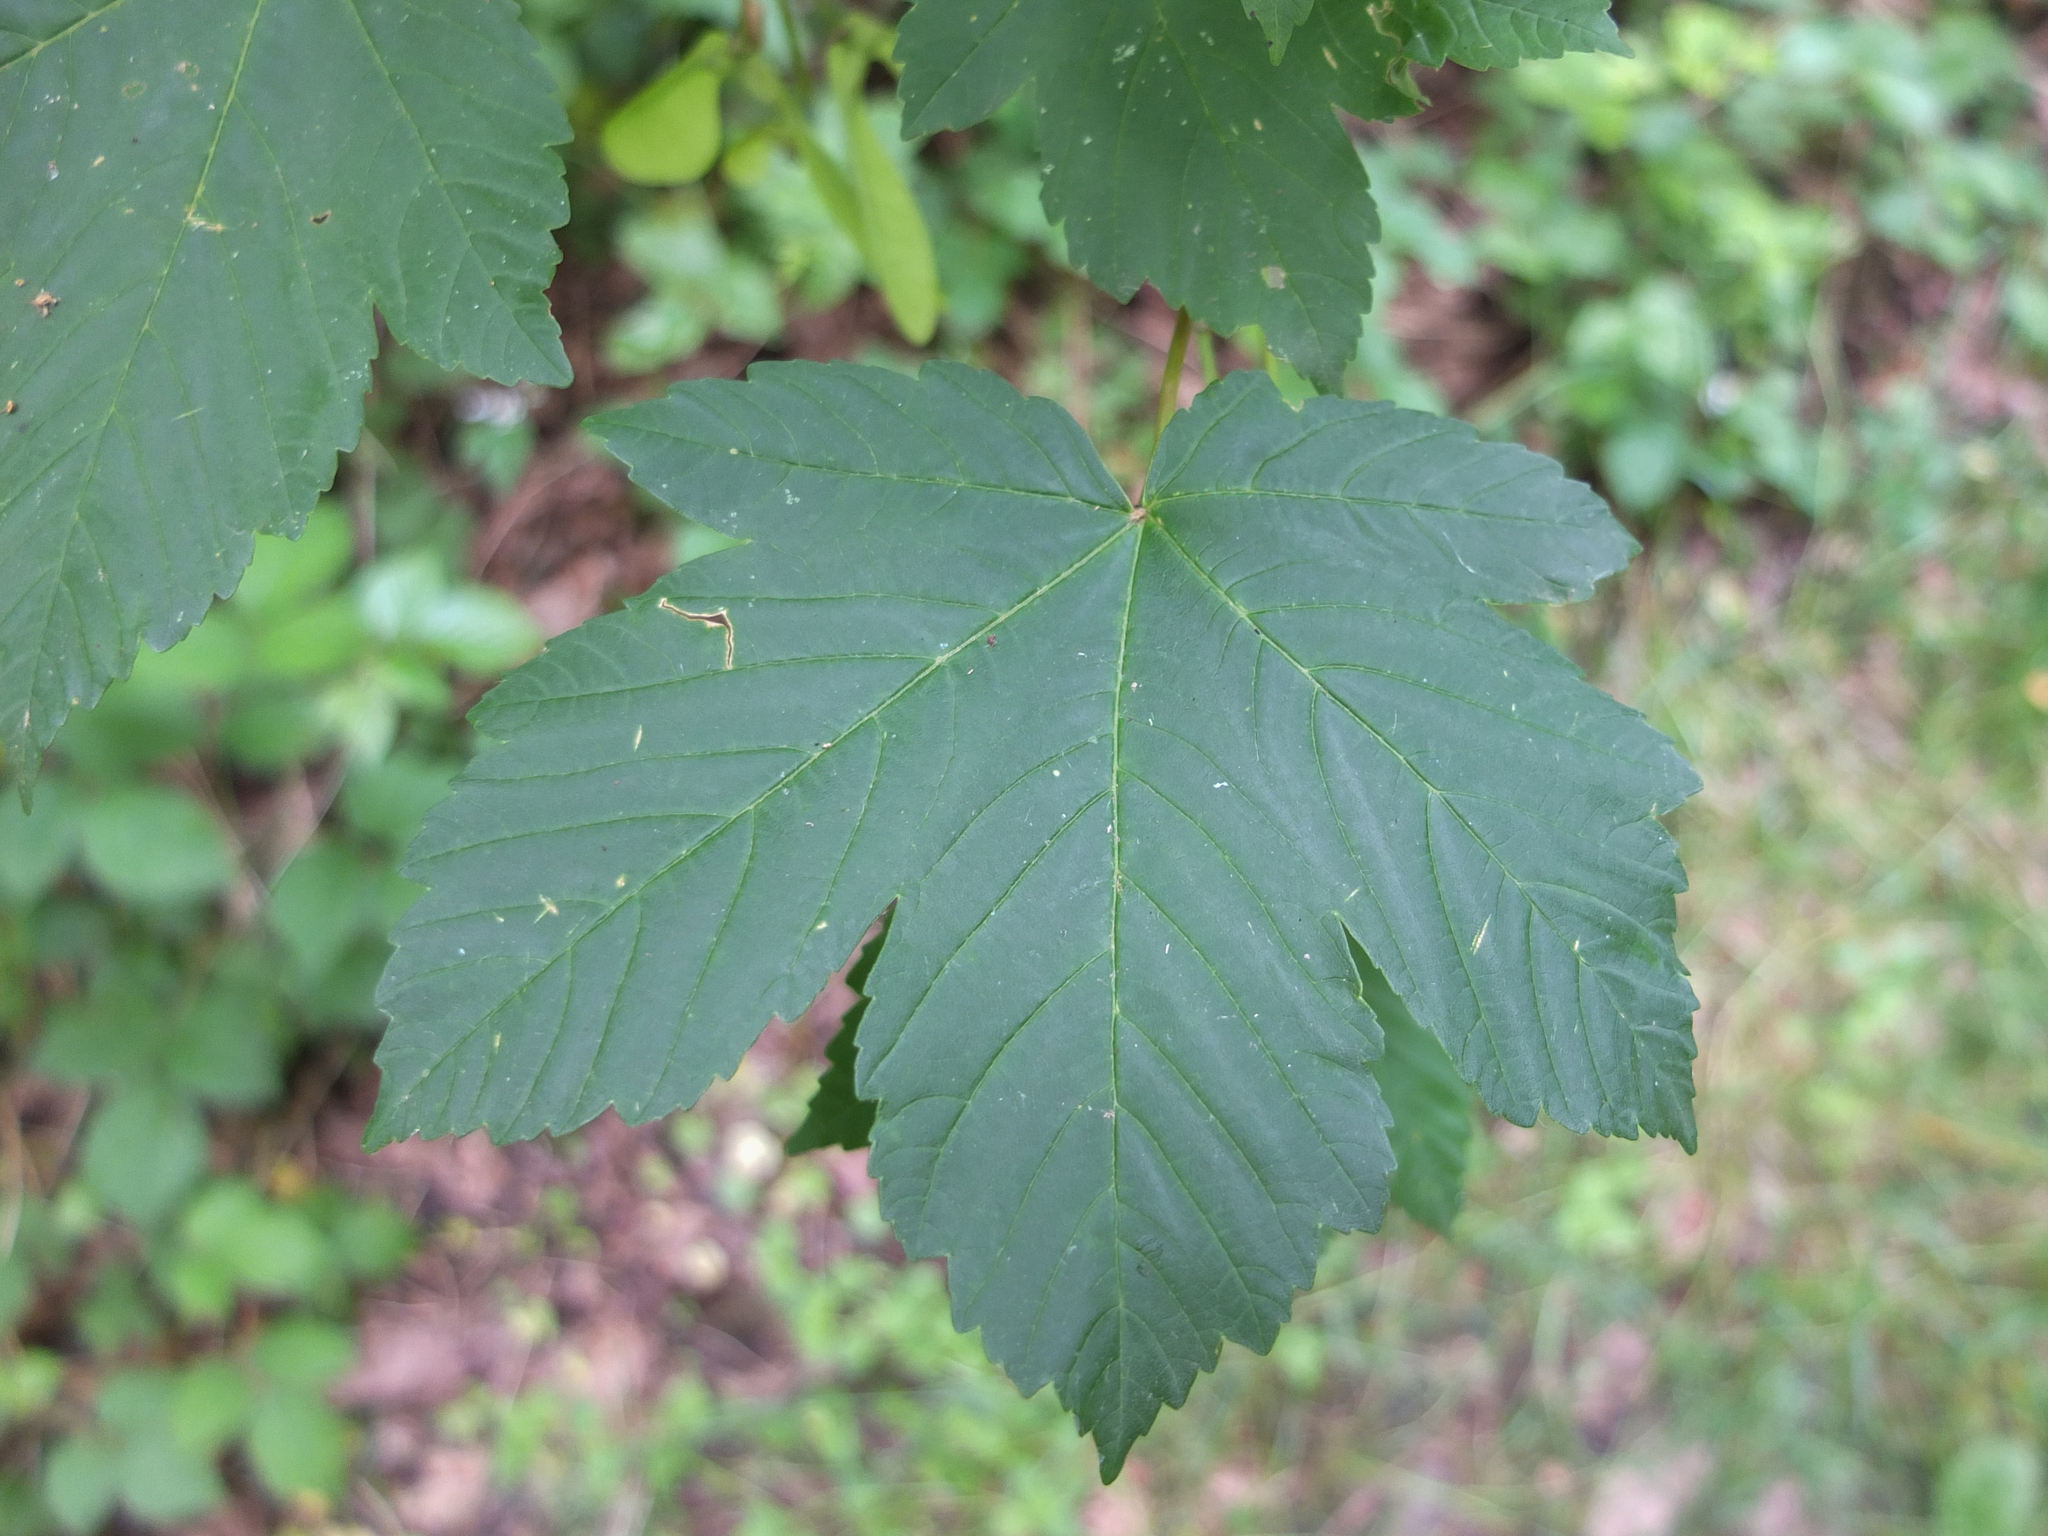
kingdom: Plantae
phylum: Tracheophyta
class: Magnoliopsida
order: Sapindales
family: Sapindaceae
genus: Acer
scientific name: Acer pseudoplatanus
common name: Sycamore
